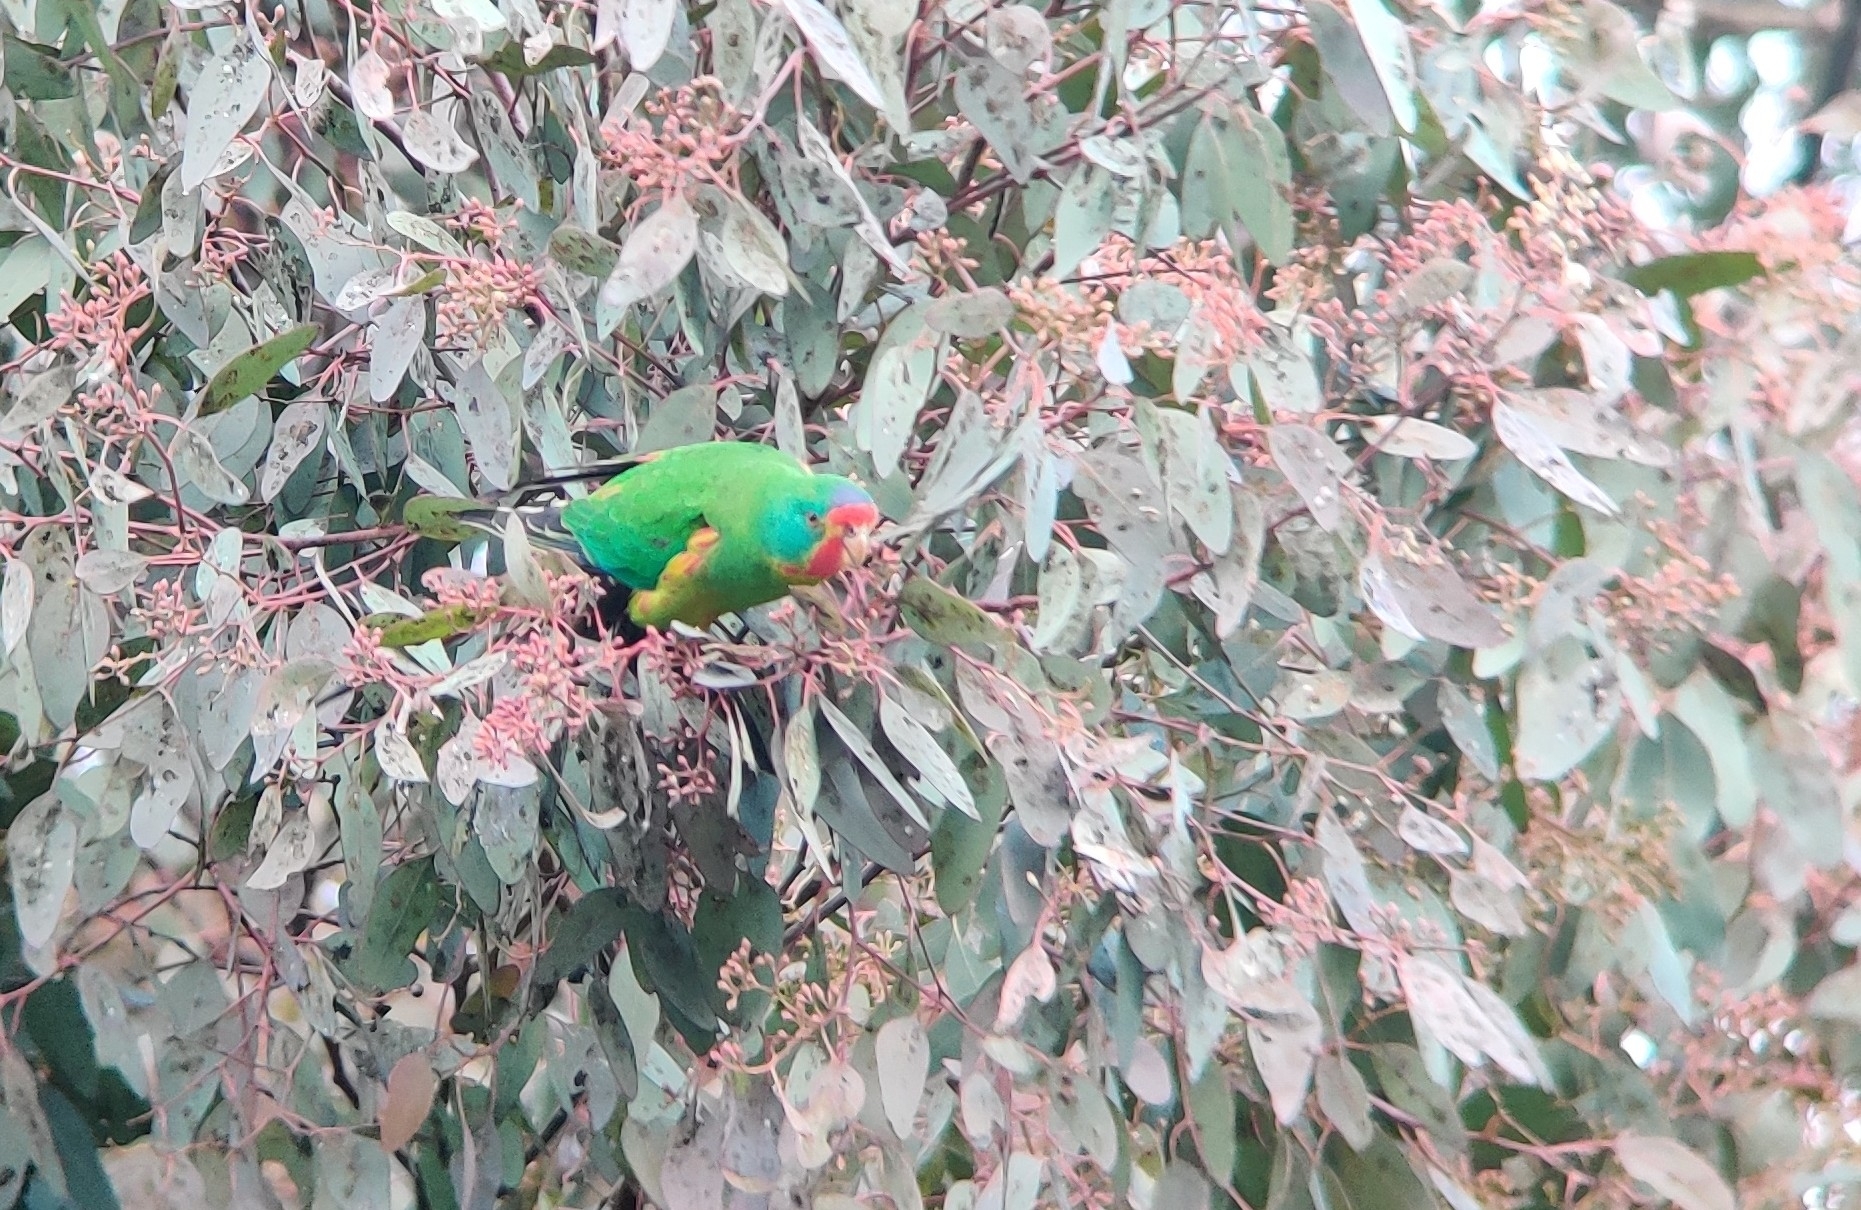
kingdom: Animalia
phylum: Chordata
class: Aves
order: Psittaciformes
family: Psittacidae
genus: Lathamus
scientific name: Lathamus discolor
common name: Swift parrot
